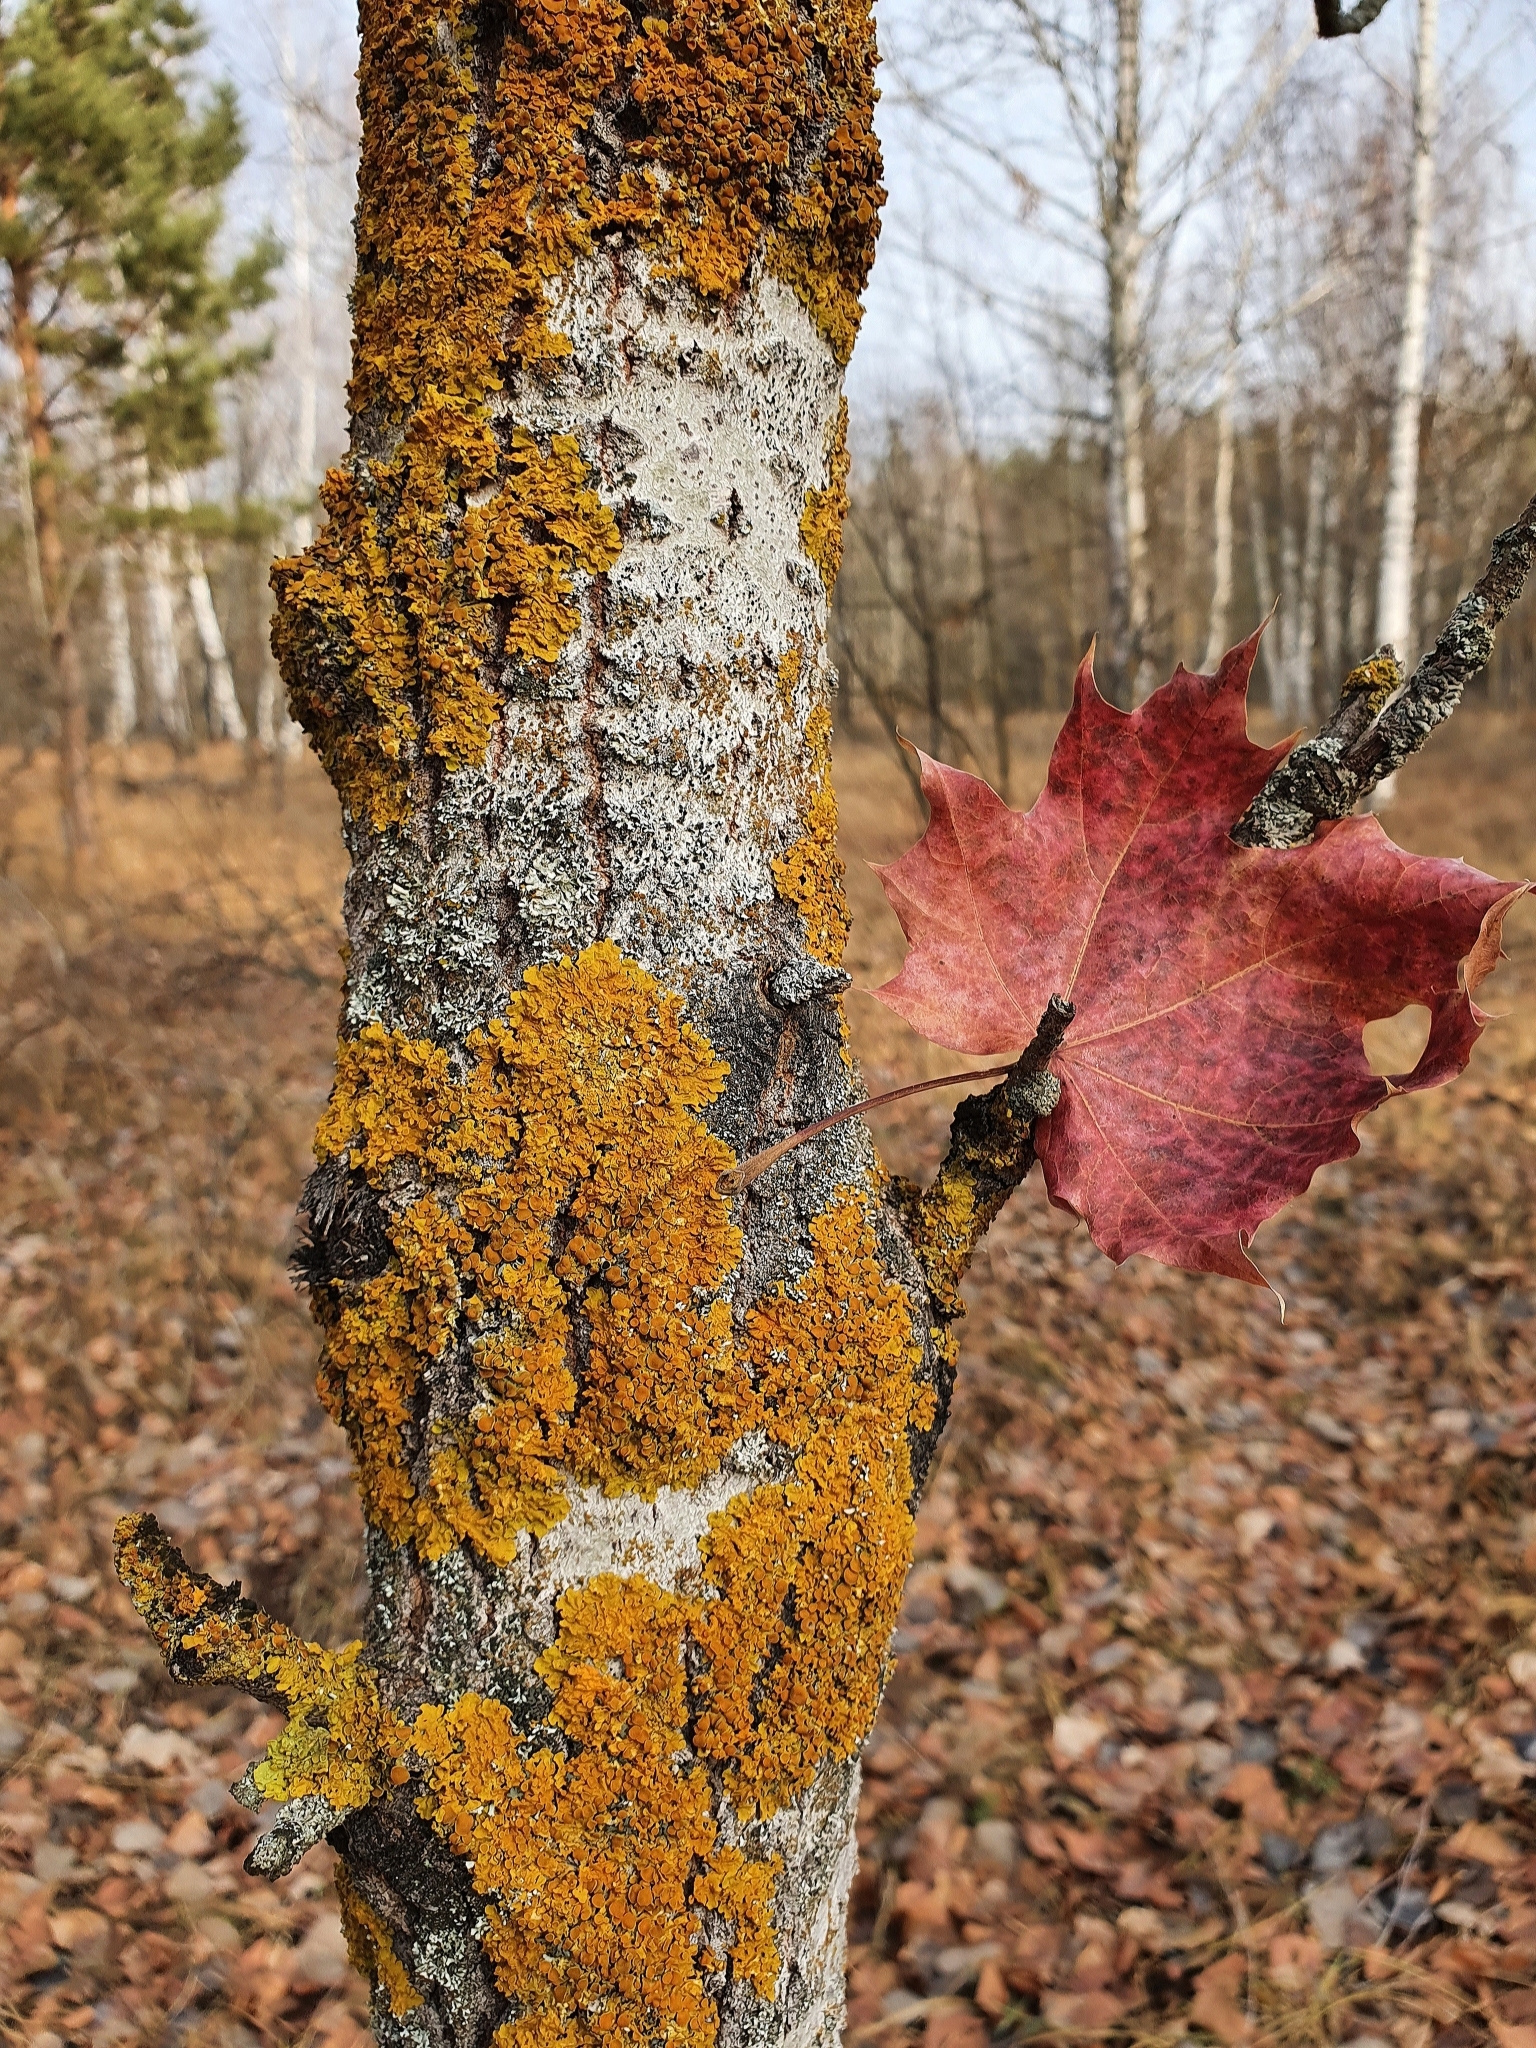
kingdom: Fungi
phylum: Ascomycota
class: Lecanoromycetes
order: Teloschistales
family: Teloschistaceae
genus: Xanthoria
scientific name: Xanthoria parietina
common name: Common orange lichen
